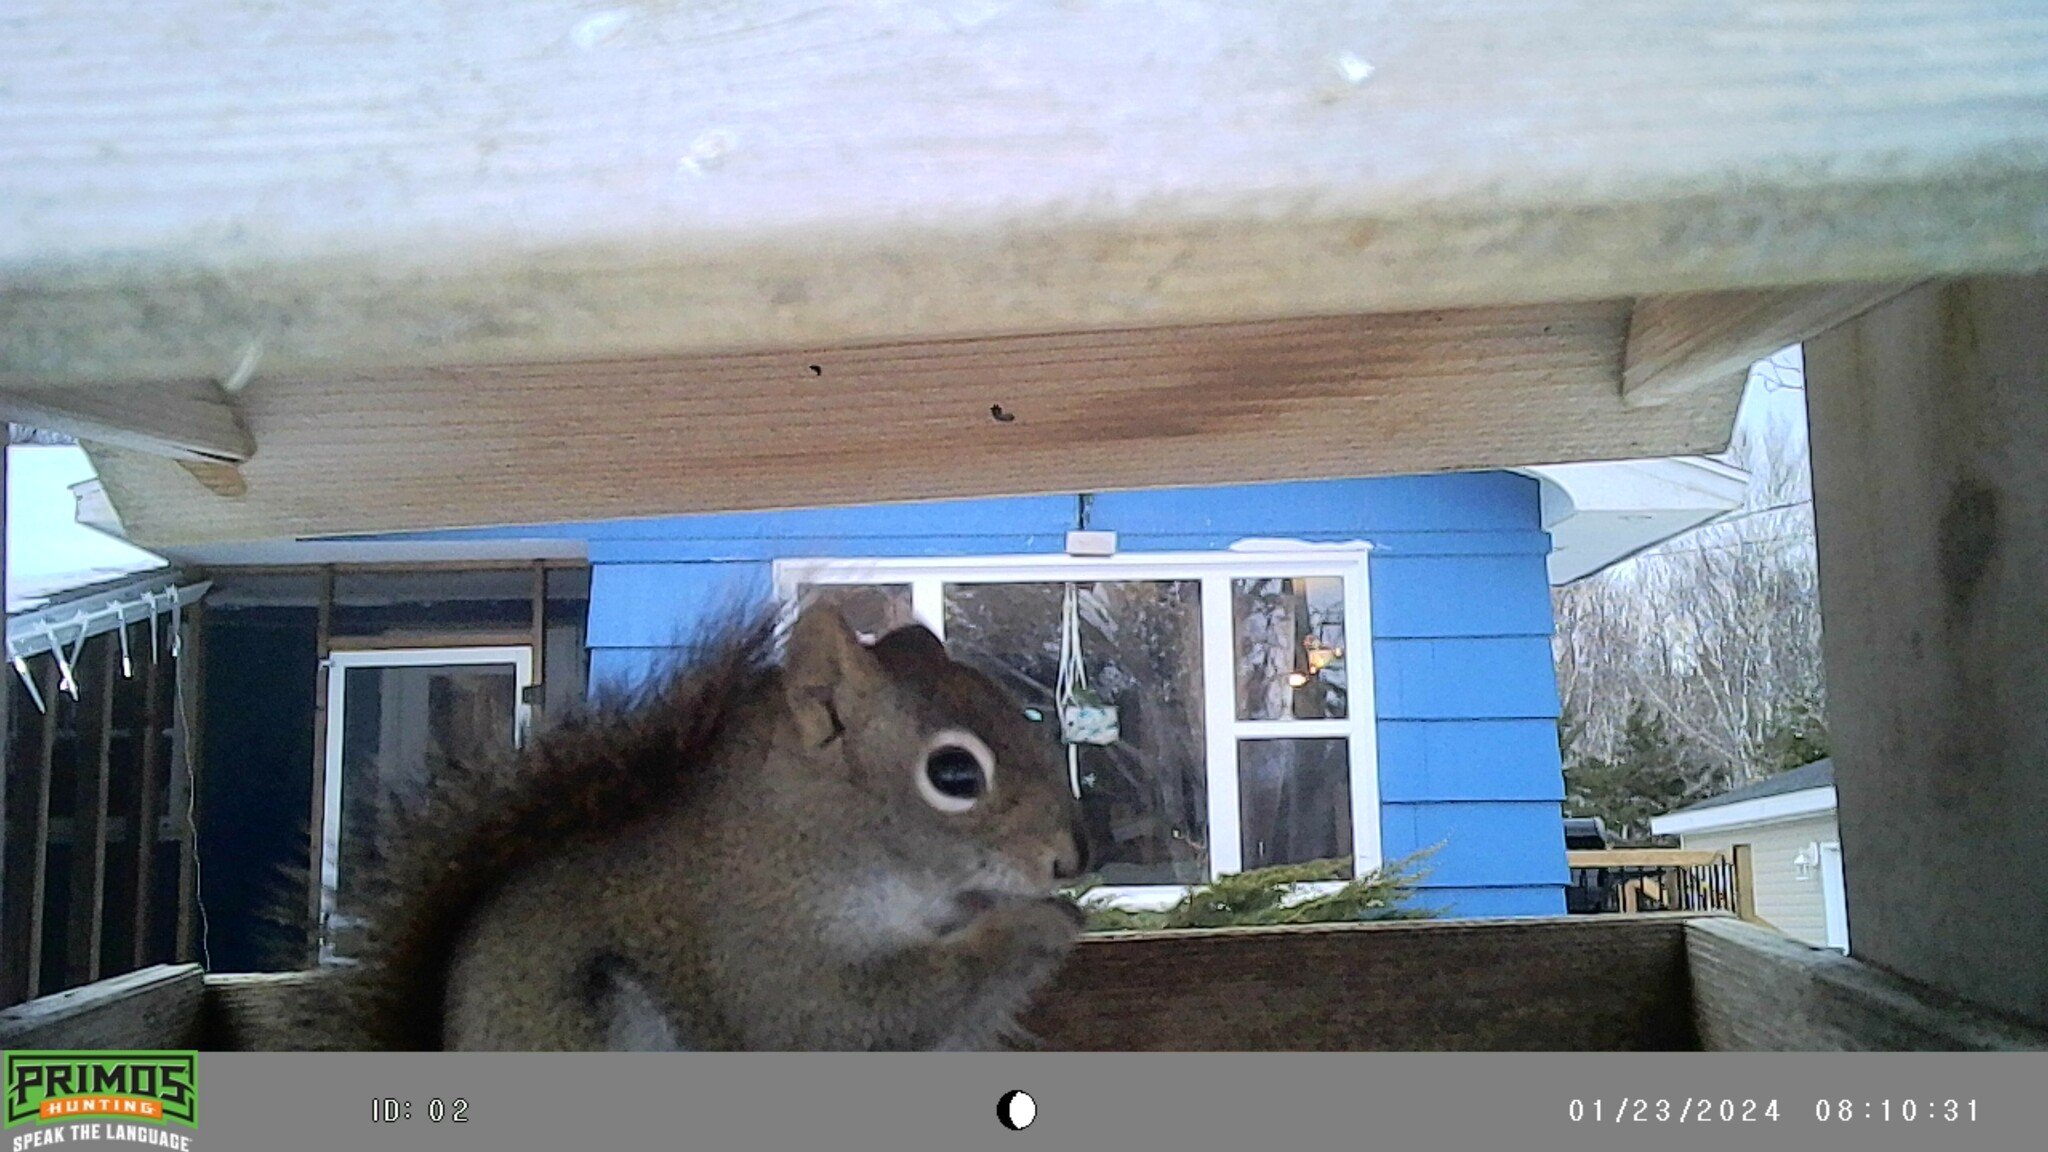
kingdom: Animalia
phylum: Chordata
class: Mammalia
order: Rodentia
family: Sciuridae
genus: Tamiasciurus
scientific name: Tamiasciurus hudsonicus
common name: Red squirrel
